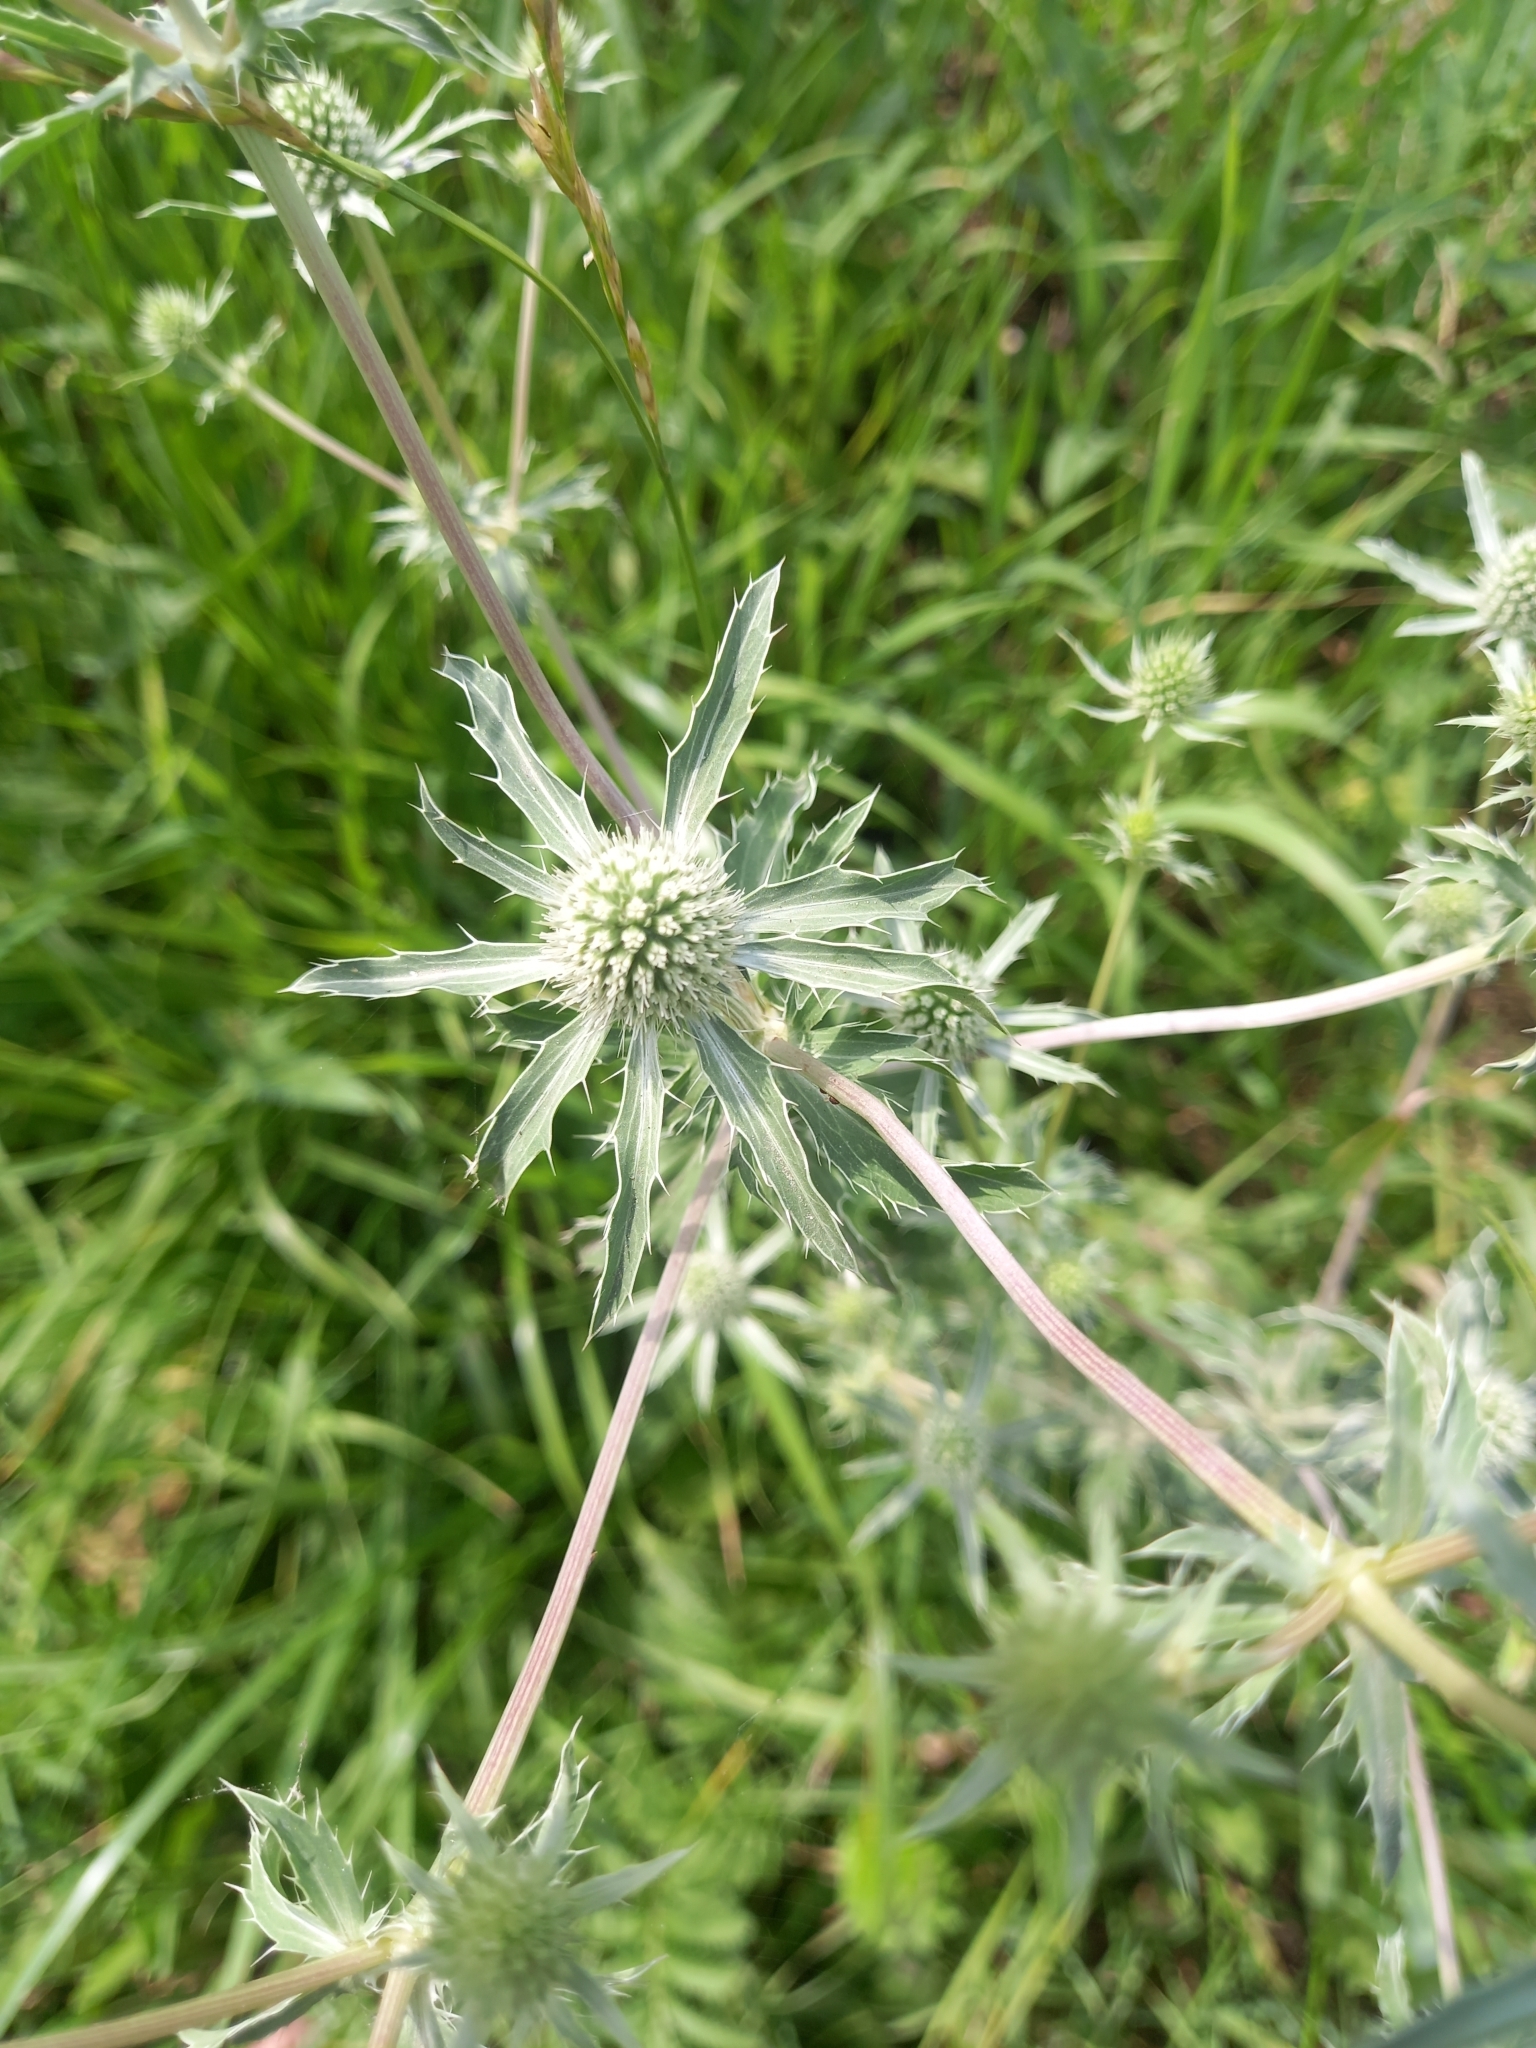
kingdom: Plantae
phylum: Tracheophyta
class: Magnoliopsida
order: Apiales
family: Apiaceae
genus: Eryngium
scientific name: Eryngium planum
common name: Blue eryngo
